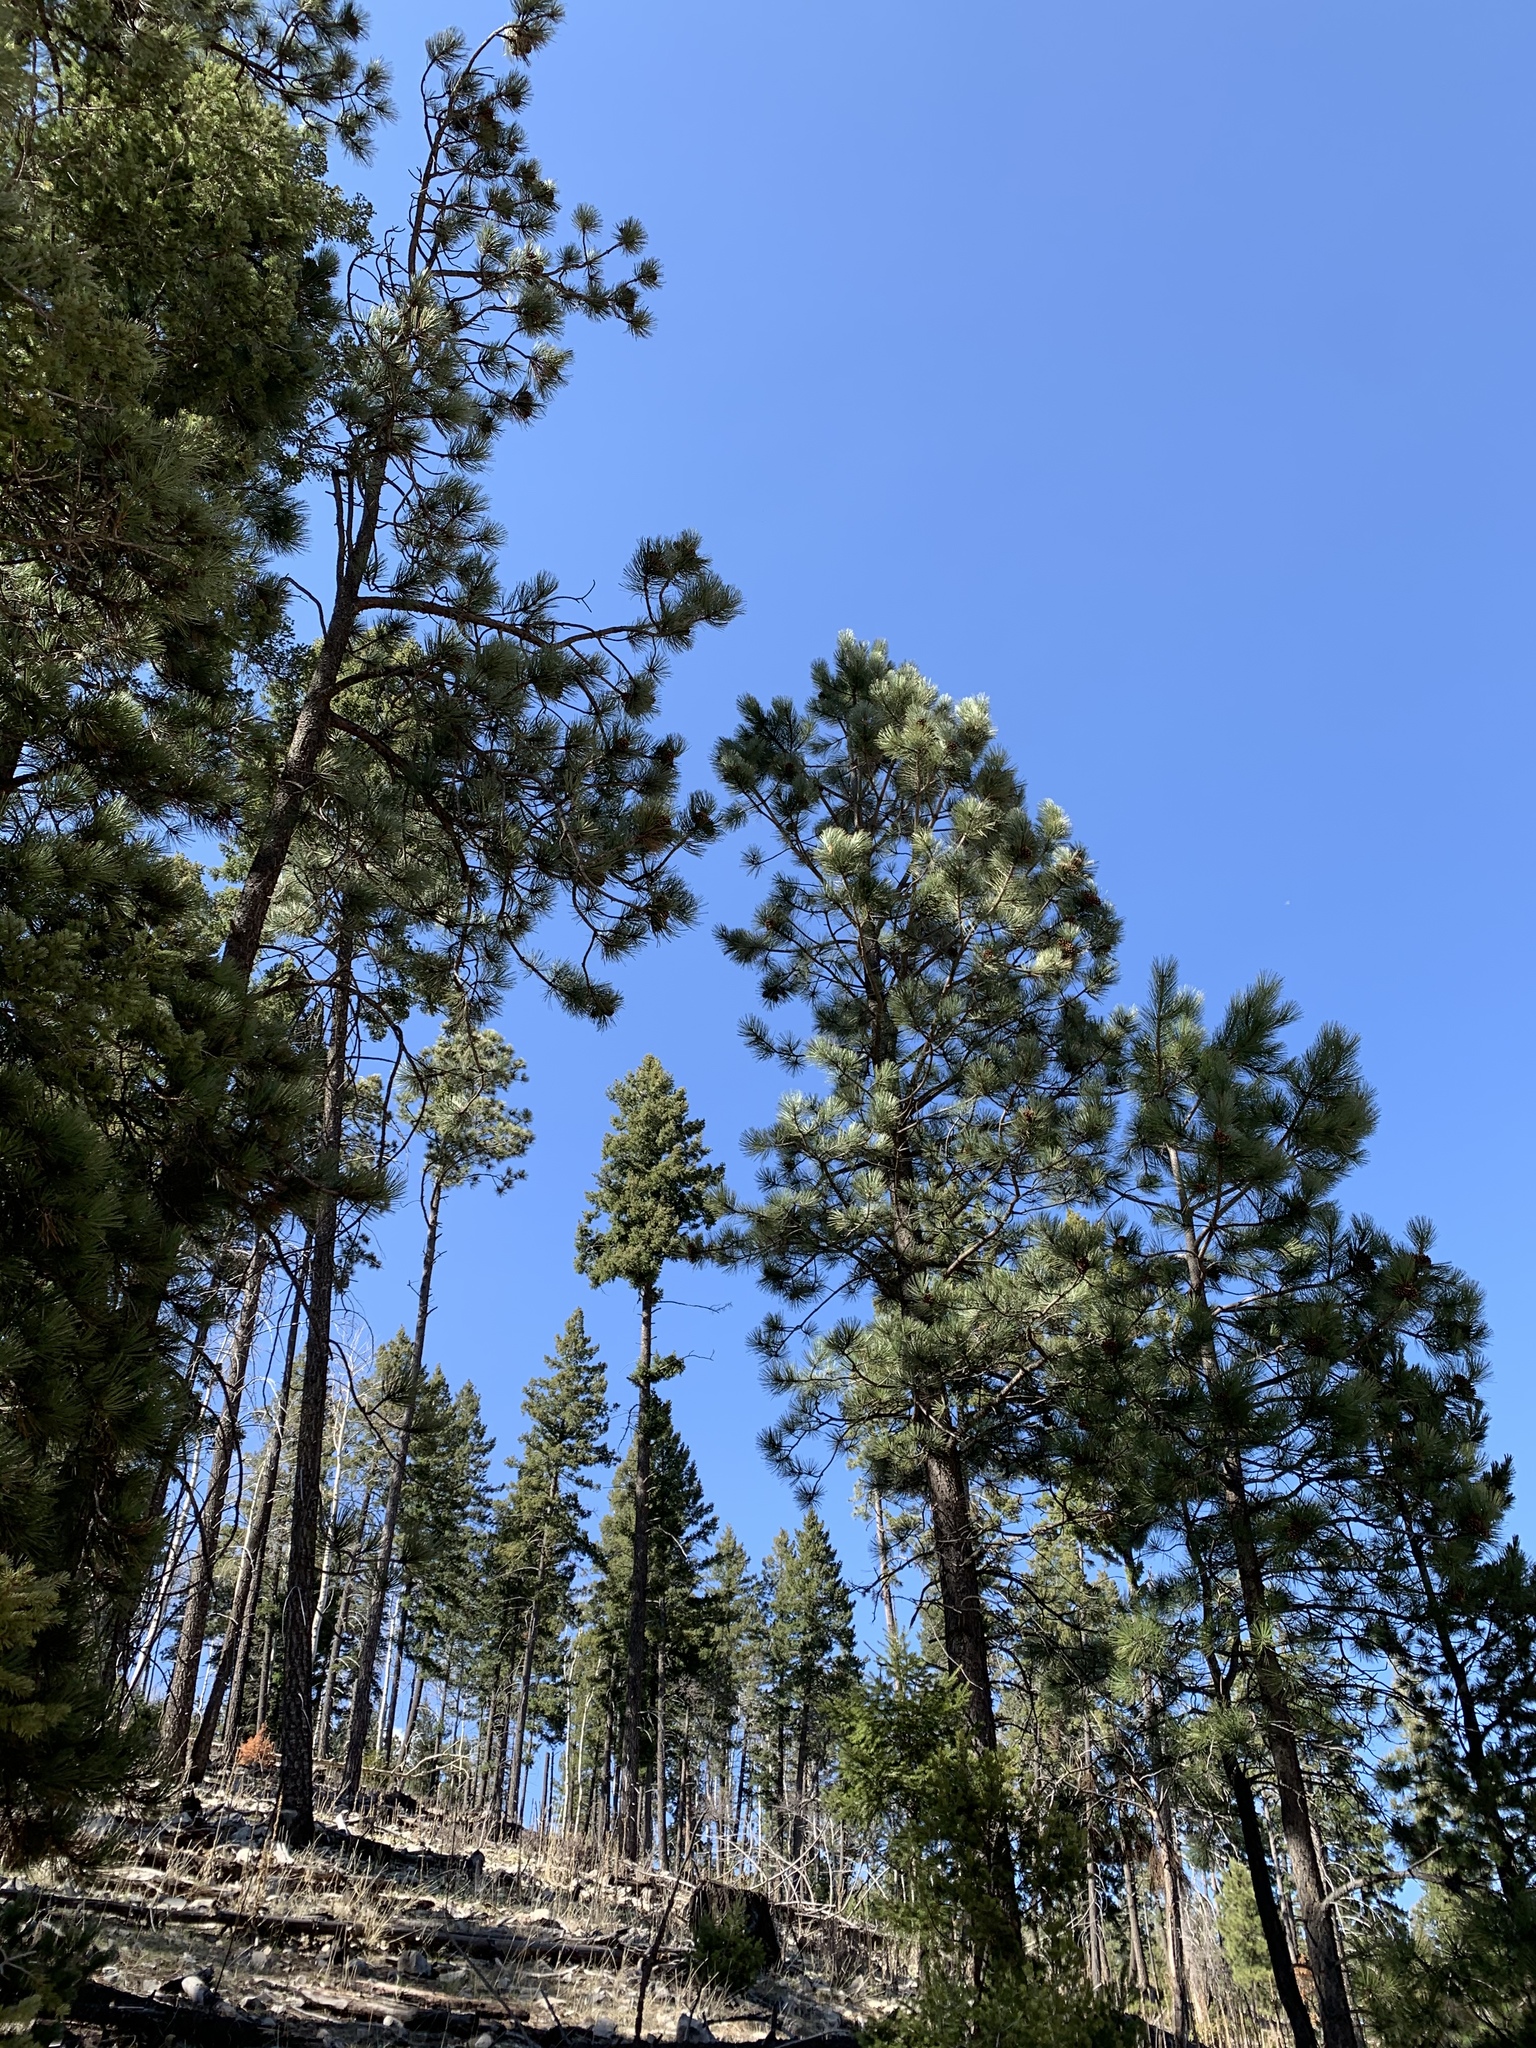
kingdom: Plantae
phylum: Tracheophyta
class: Pinopsida
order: Pinales
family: Pinaceae
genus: Pinus
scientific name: Pinus ponderosa
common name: Western yellow-pine
